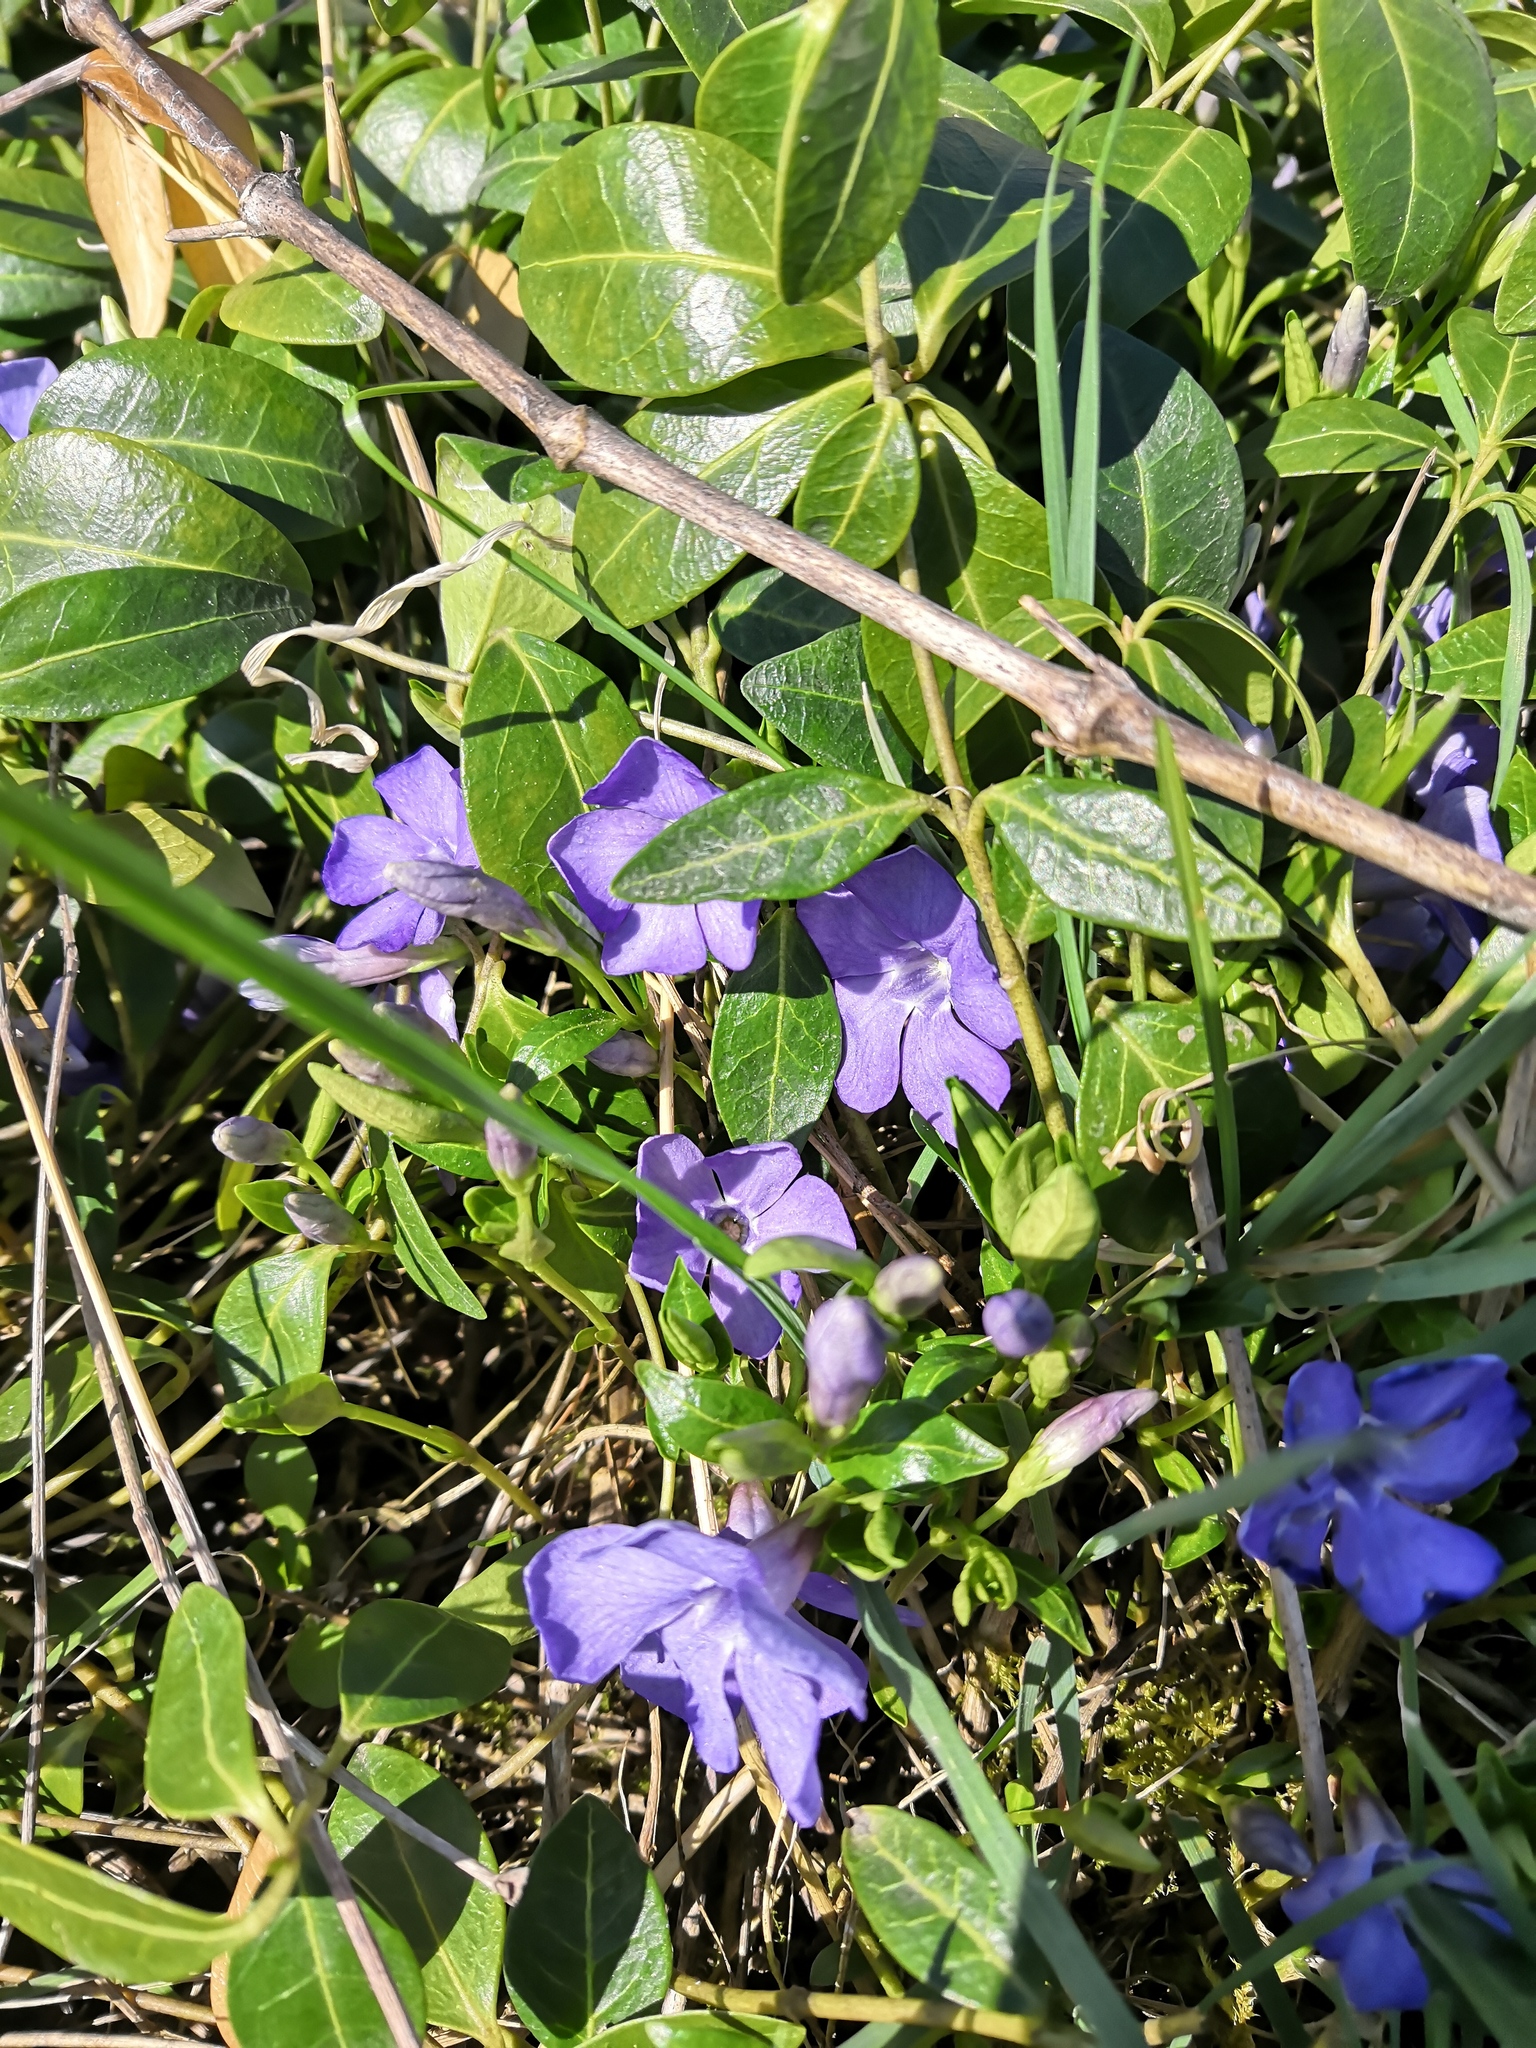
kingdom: Plantae
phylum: Tracheophyta
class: Magnoliopsida
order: Gentianales
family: Apocynaceae
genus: Vinca
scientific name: Vinca minor
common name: Lesser periwinkle
